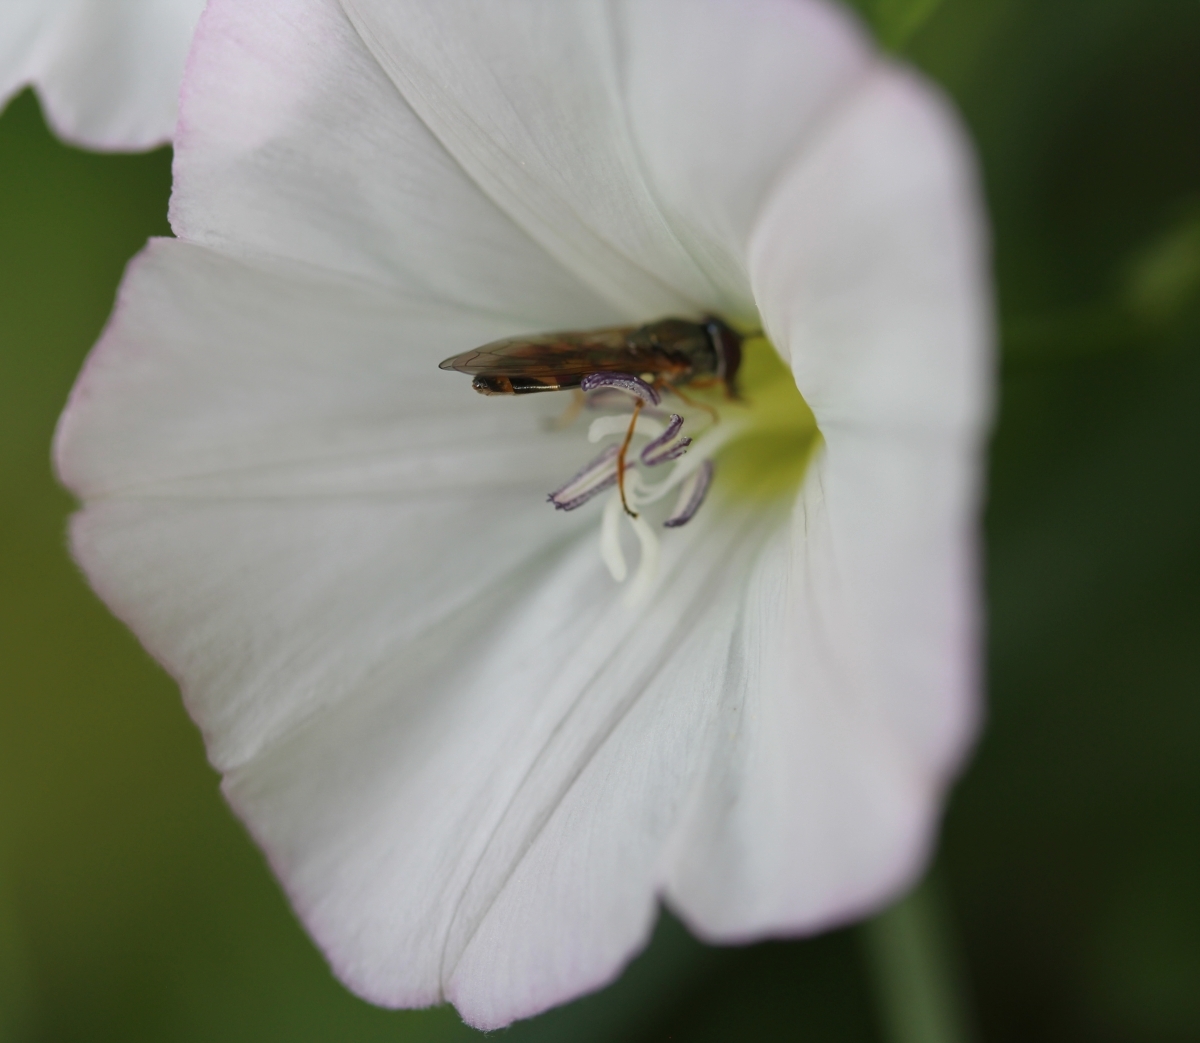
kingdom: Animalia
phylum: Arthropoda
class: Insecta
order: Diptera
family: Syrphidae
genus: Melanostoma
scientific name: Melanostoma
